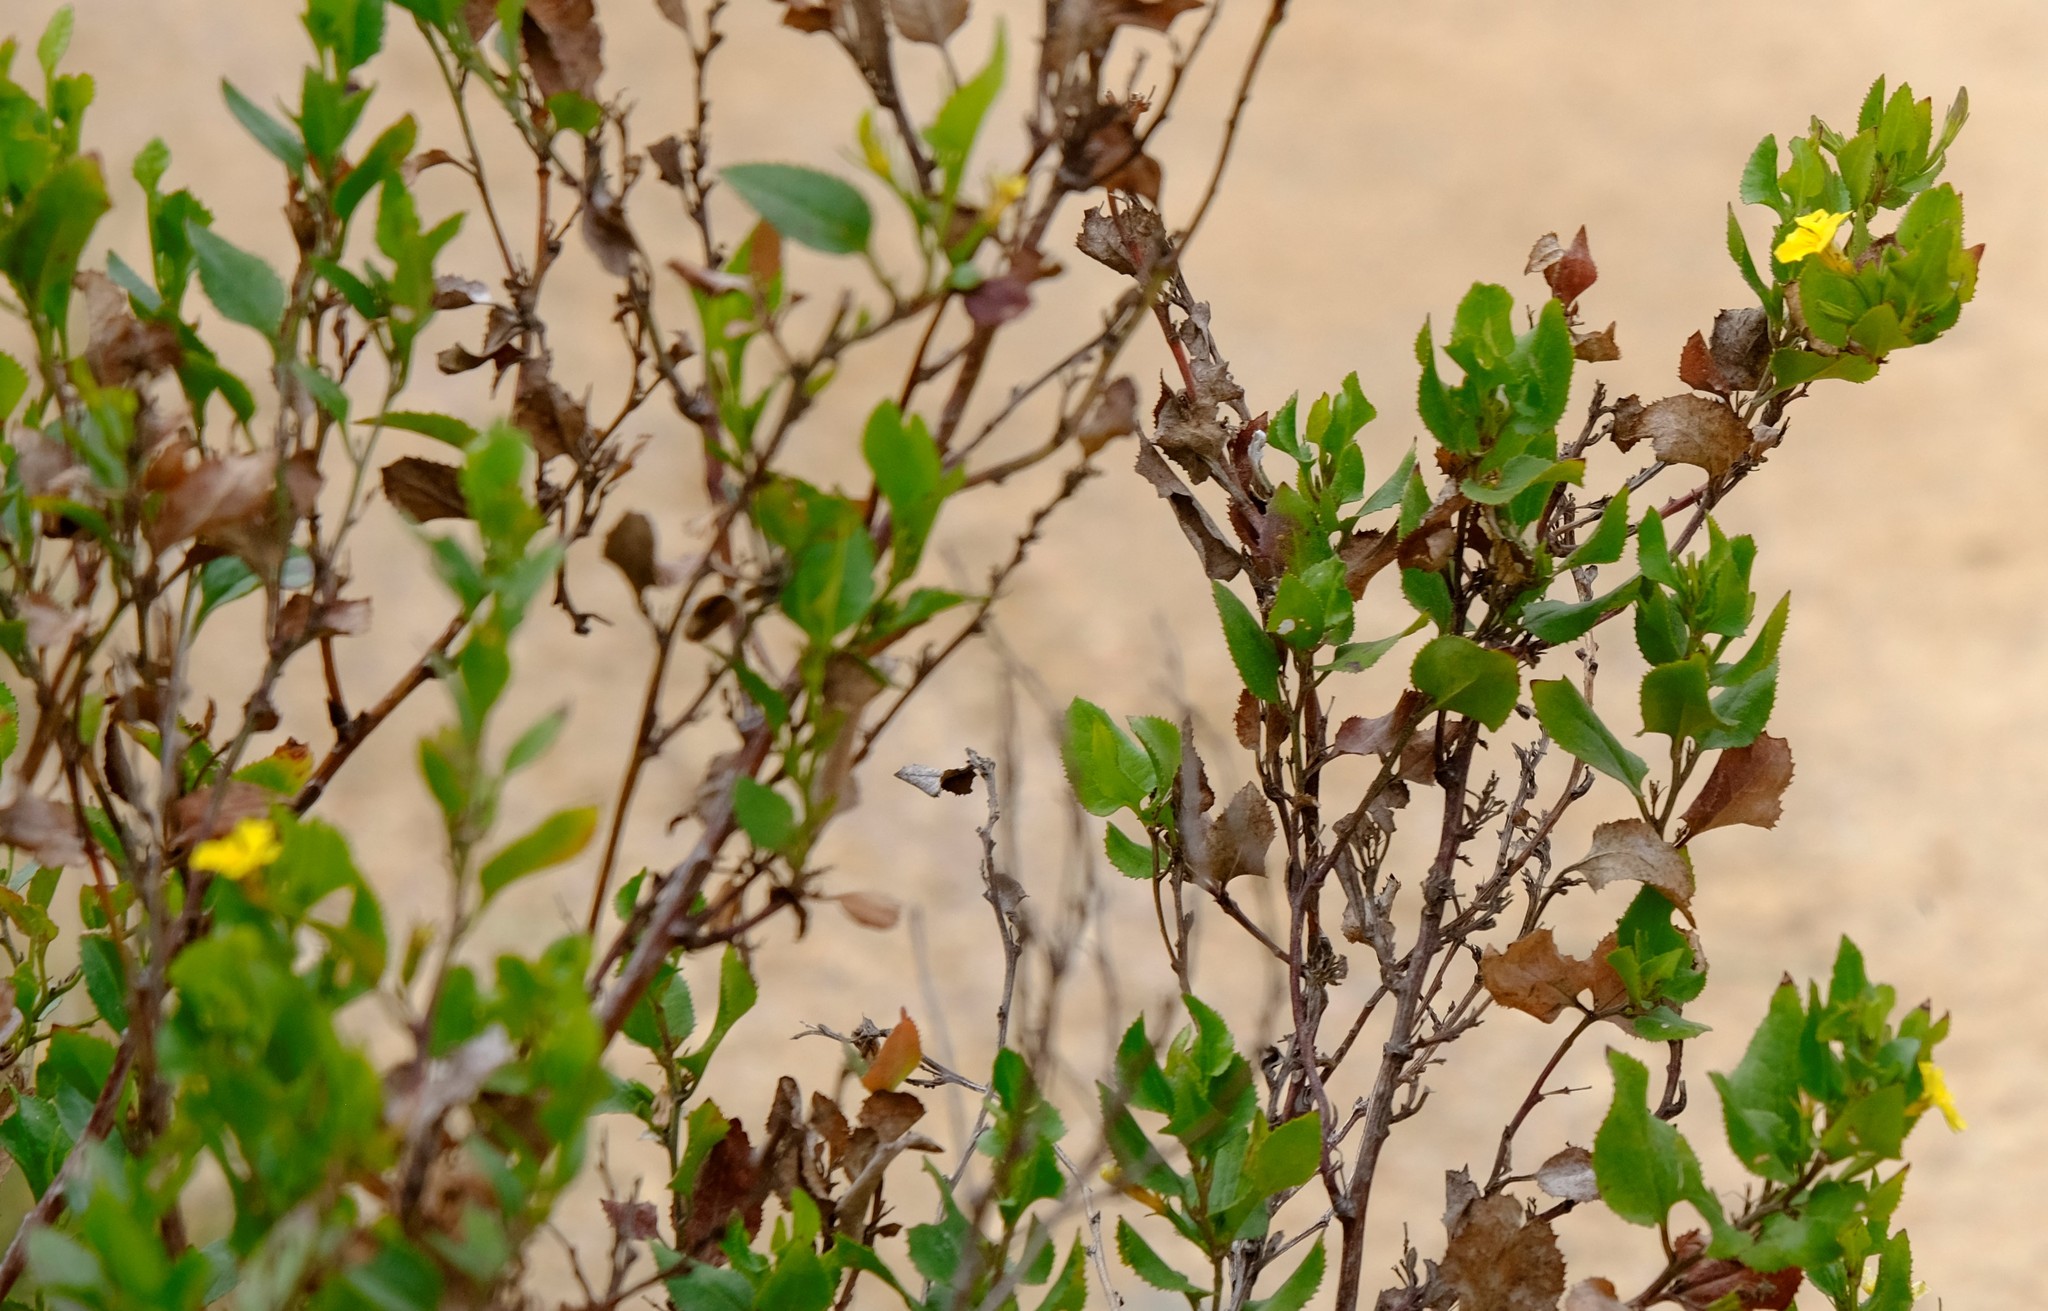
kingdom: Plantae
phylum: Tracheophyta
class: Magnoliopsida
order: Asterales
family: Goodeniaceae
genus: Goodenia
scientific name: Goodenia ovata
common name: Hop goodenia
